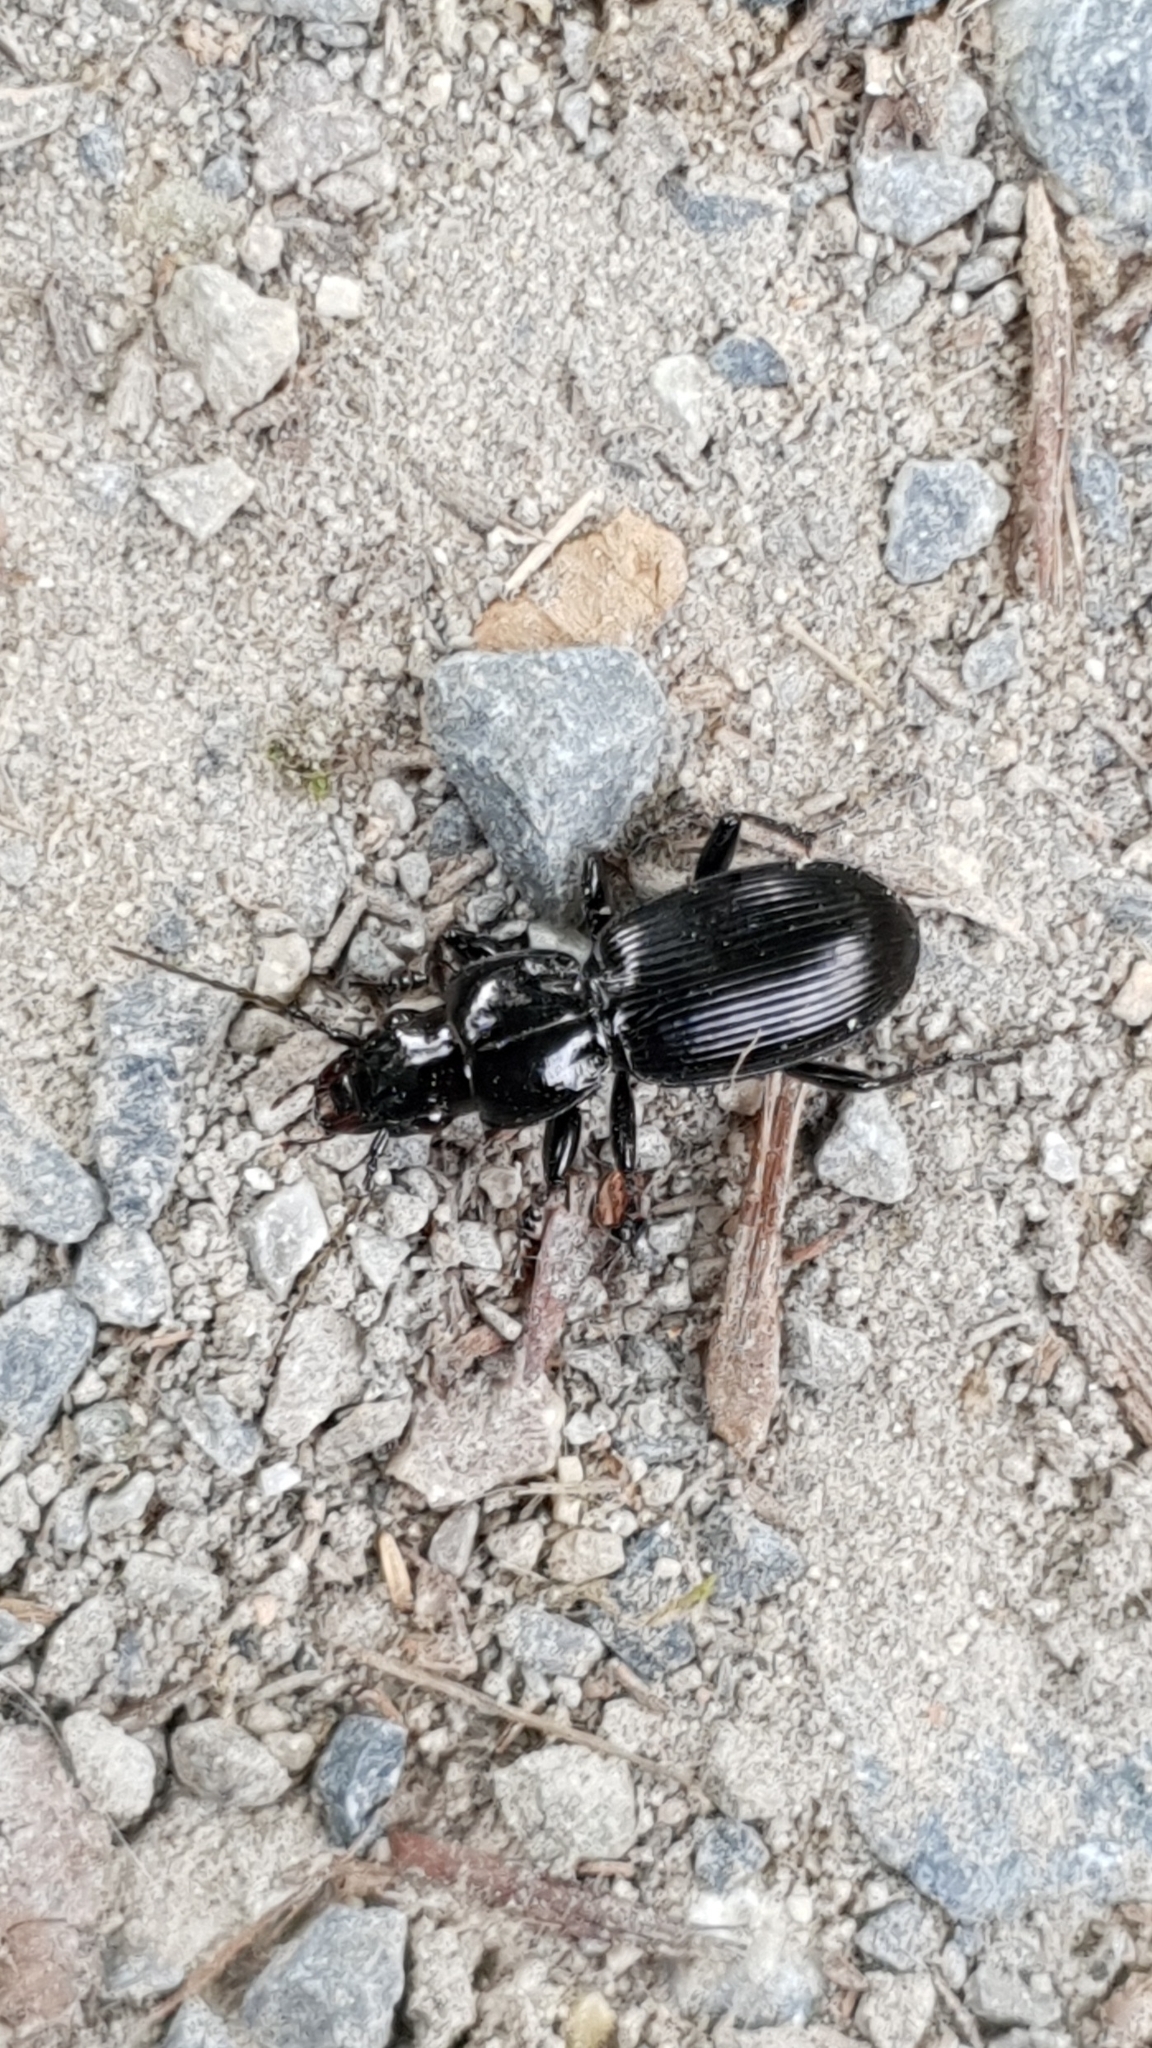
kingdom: Animalia
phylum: Arthropoda
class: Insecta
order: Coleoptera
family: Carabidae
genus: Pterostichus
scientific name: Pterostichus madidus
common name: Black clock
